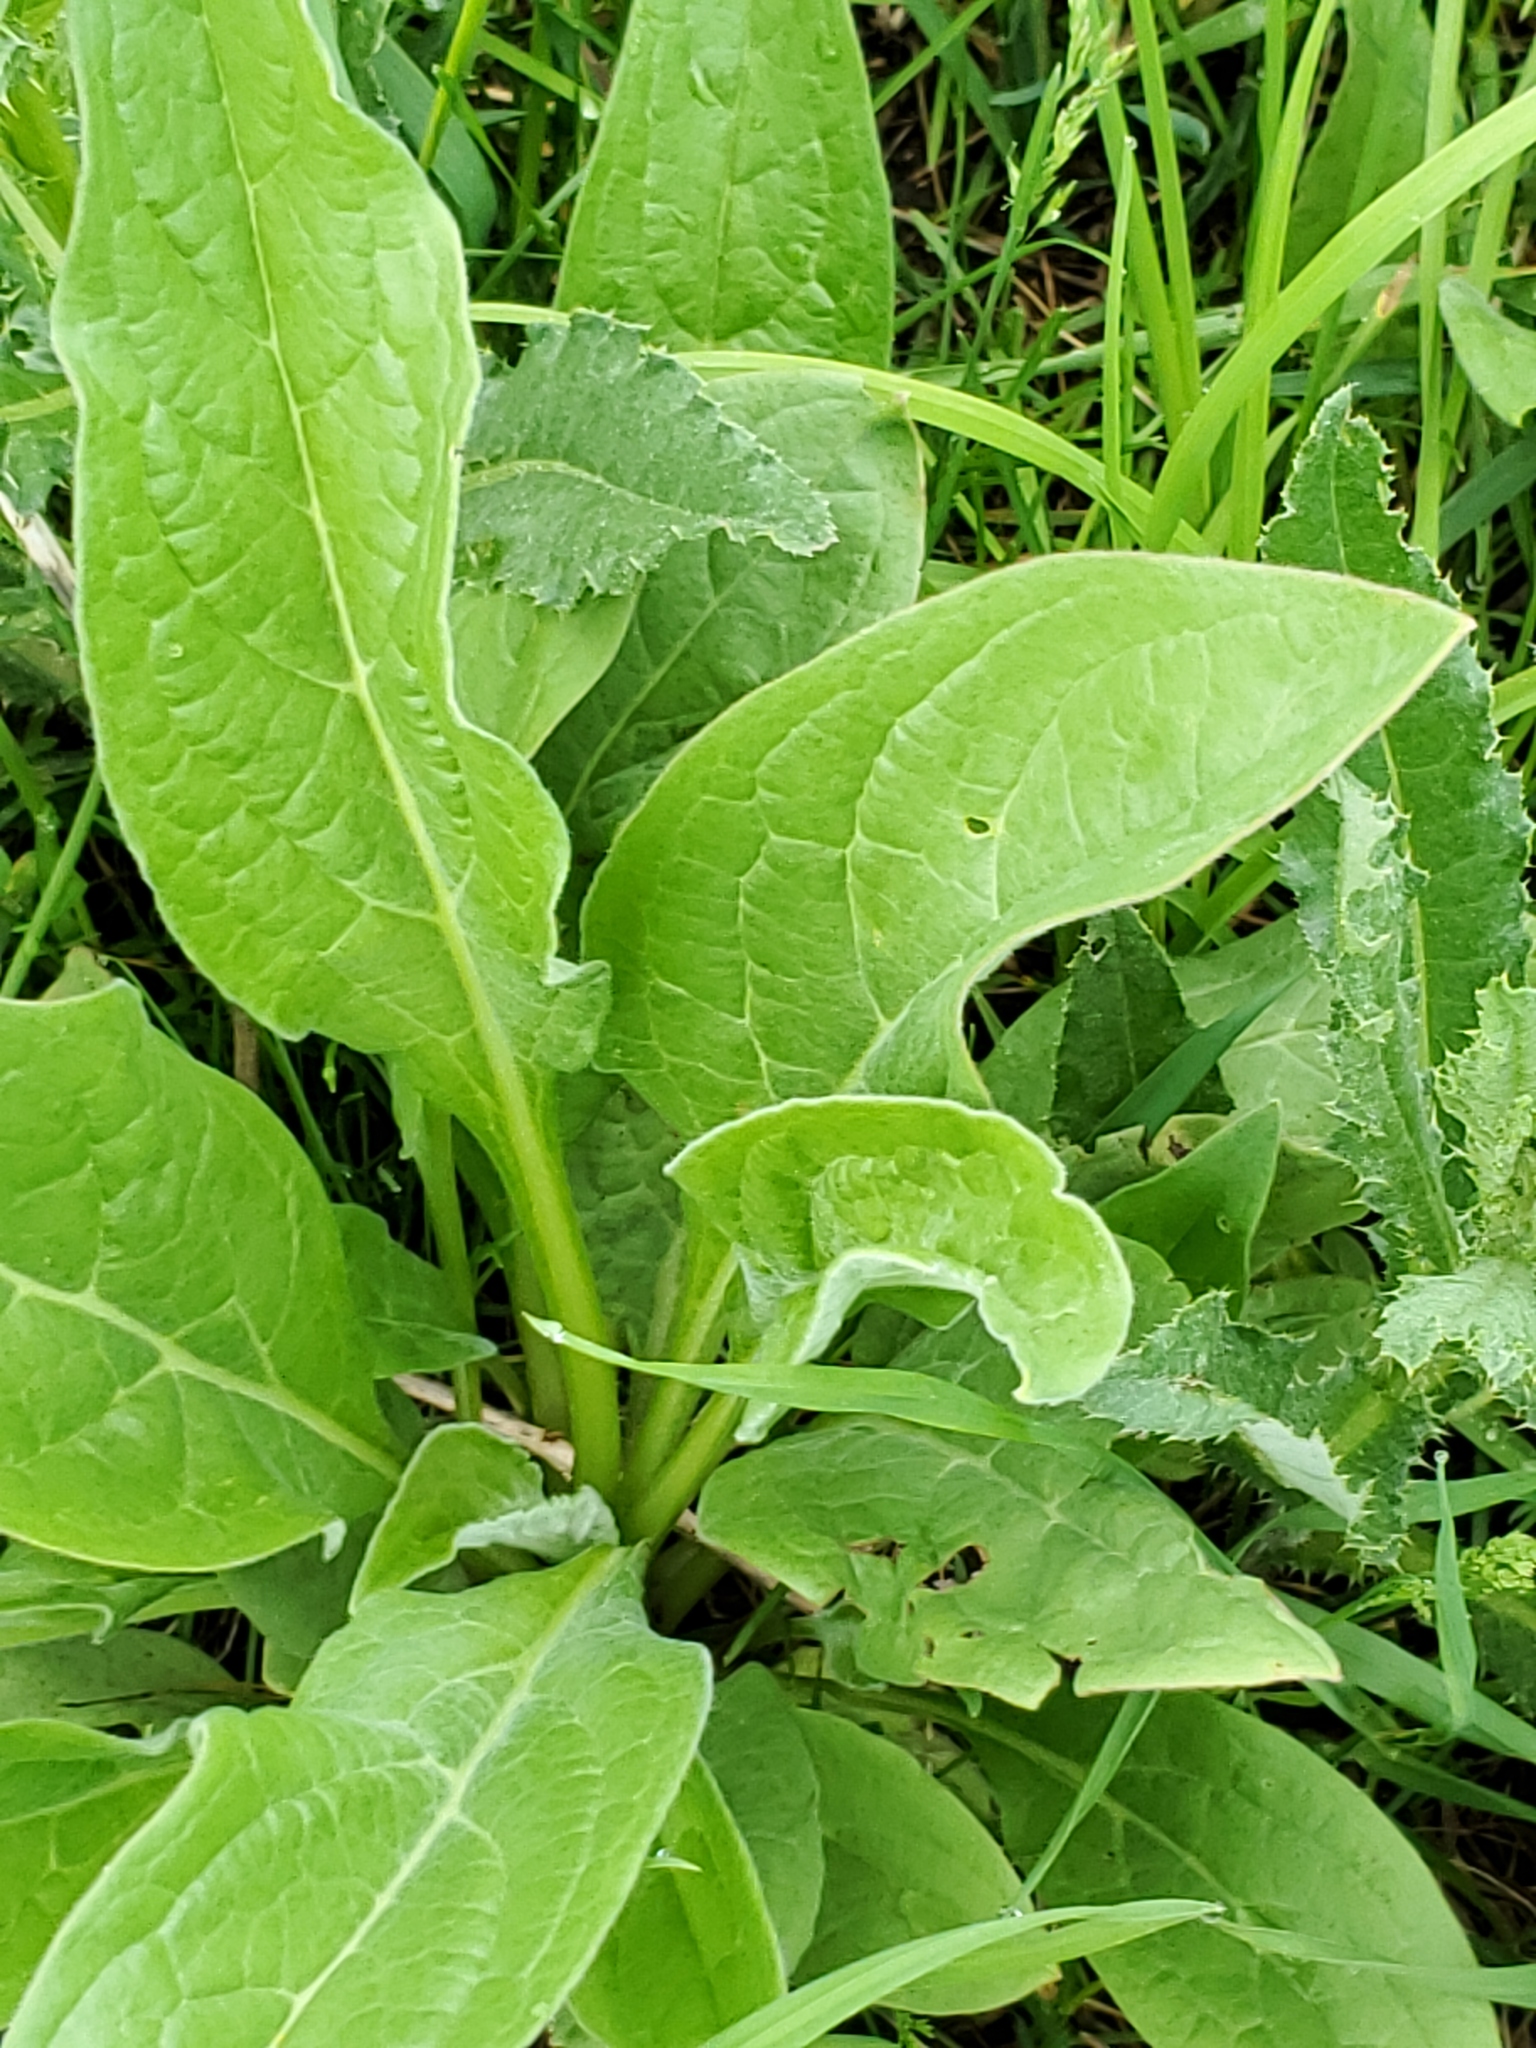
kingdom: Plantae
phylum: Tracheophyta
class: Magnoliopsida
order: Boraginales
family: Boraginaceae
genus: Cynoglossum
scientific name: Cynoglossum officinale
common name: Hound's-tongue
